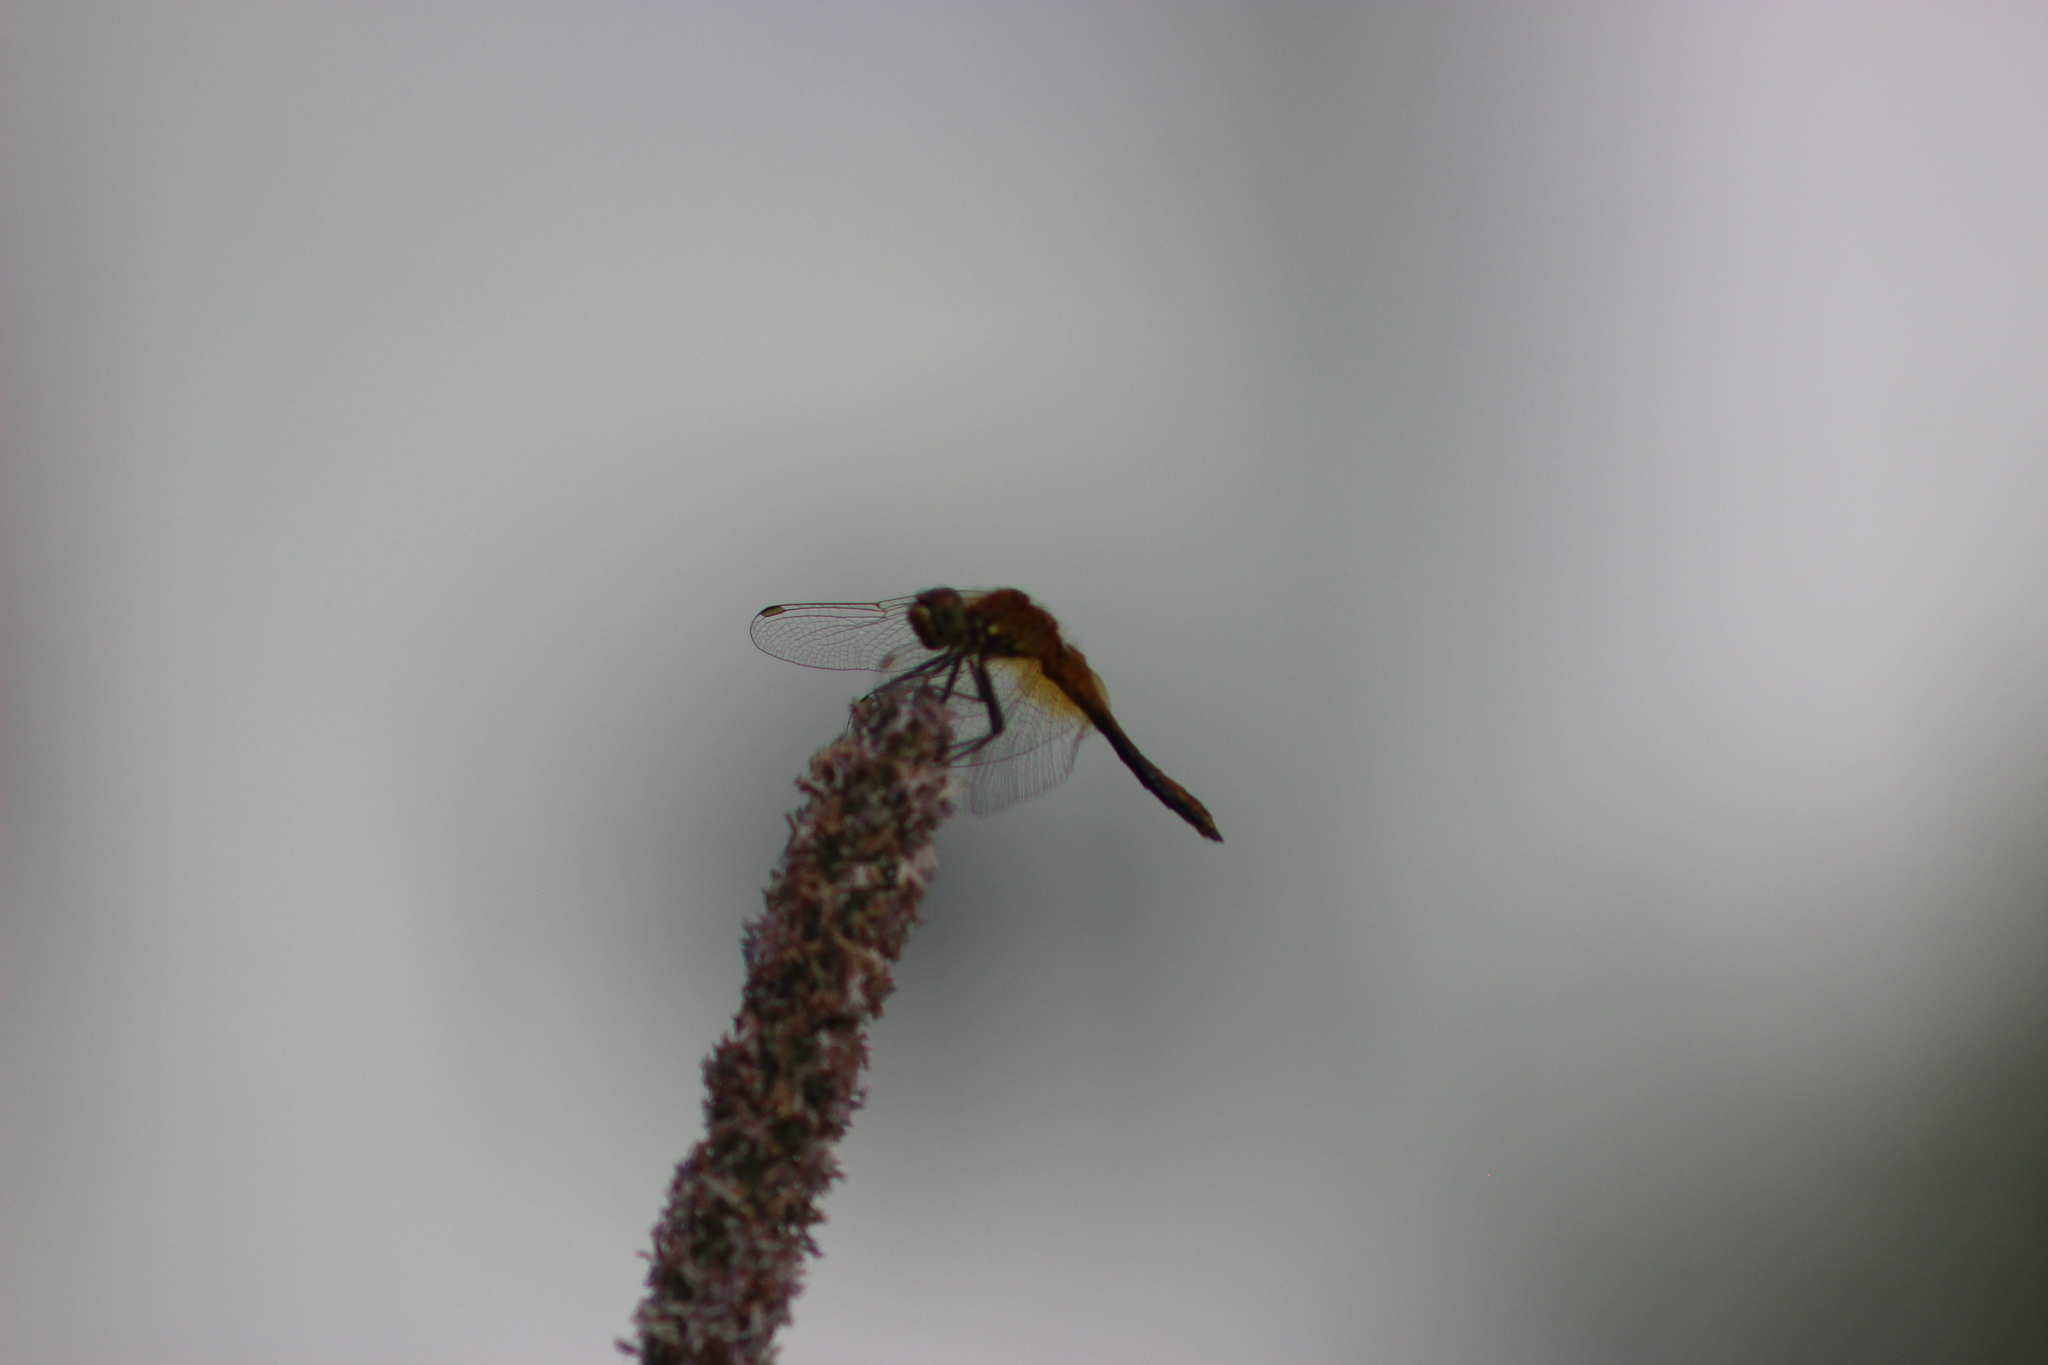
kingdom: Animalia
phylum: Arthropoda
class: Insecta
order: Odonata
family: Libellulidae
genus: Sympetrum
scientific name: Sympetrum flaveolum
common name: Yellow-winged darter
